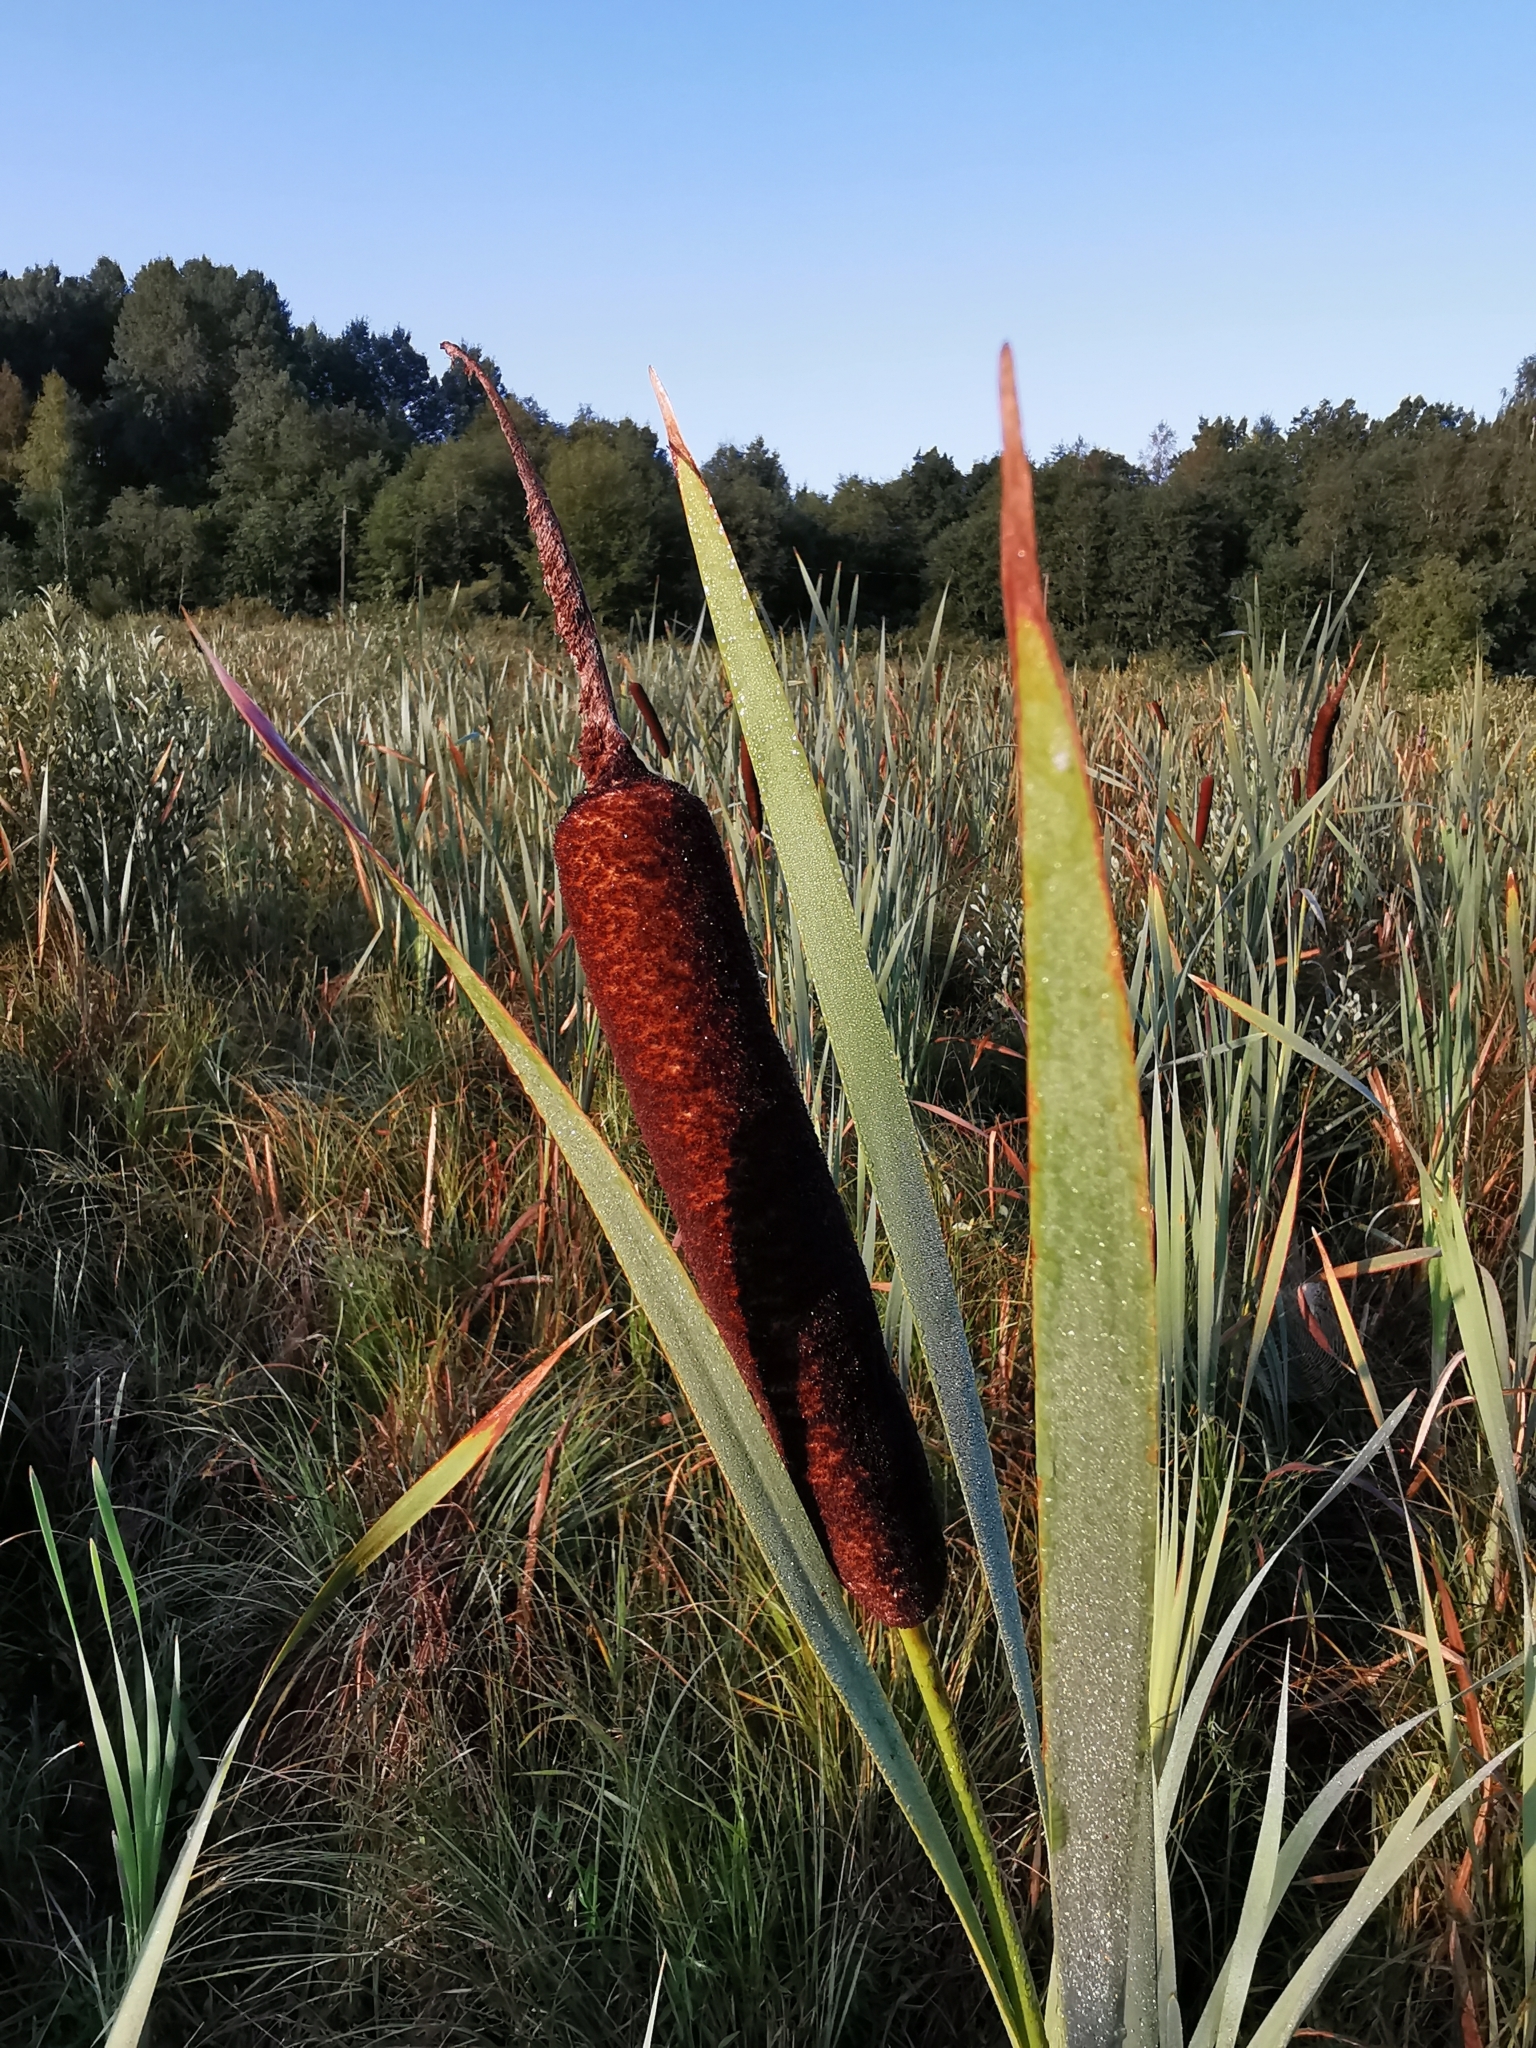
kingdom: Plantae
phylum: Tracheophyta
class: Liliopsida
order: Poales
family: Typhaceae
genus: Typha
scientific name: Typha latifolia
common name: Broadleaf cattail
